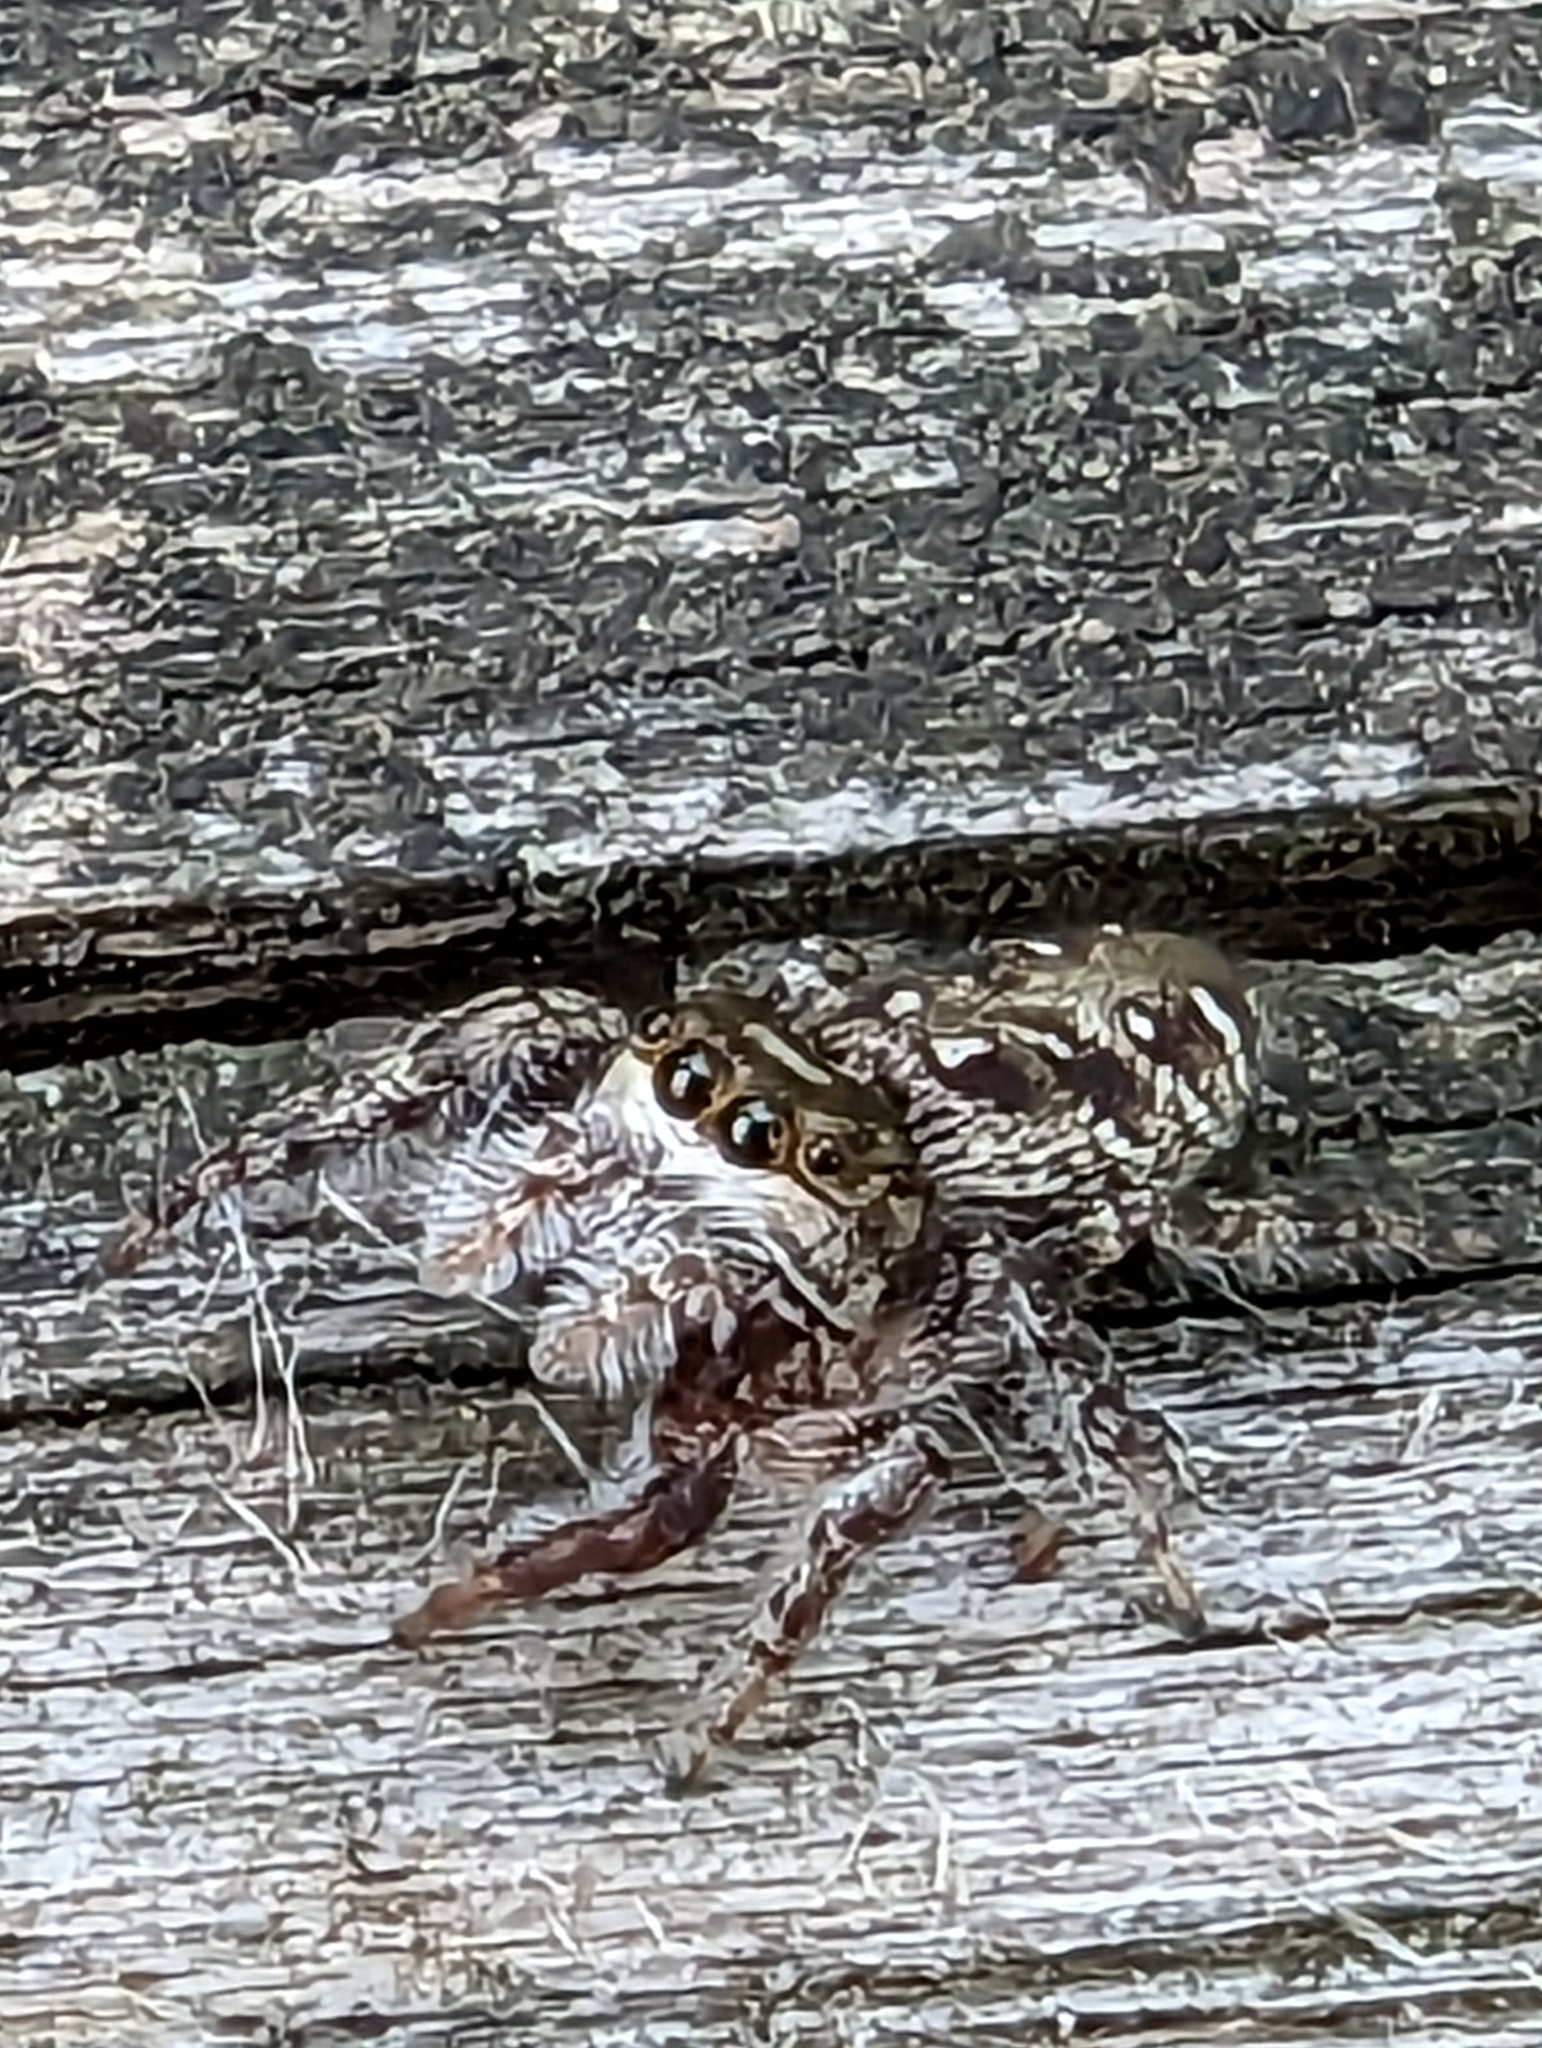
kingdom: Animalia
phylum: Arthropoda
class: Arachnida
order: Araneae
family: Salticidae
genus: Eris
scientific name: Eris militaris
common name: Bronze jumper
